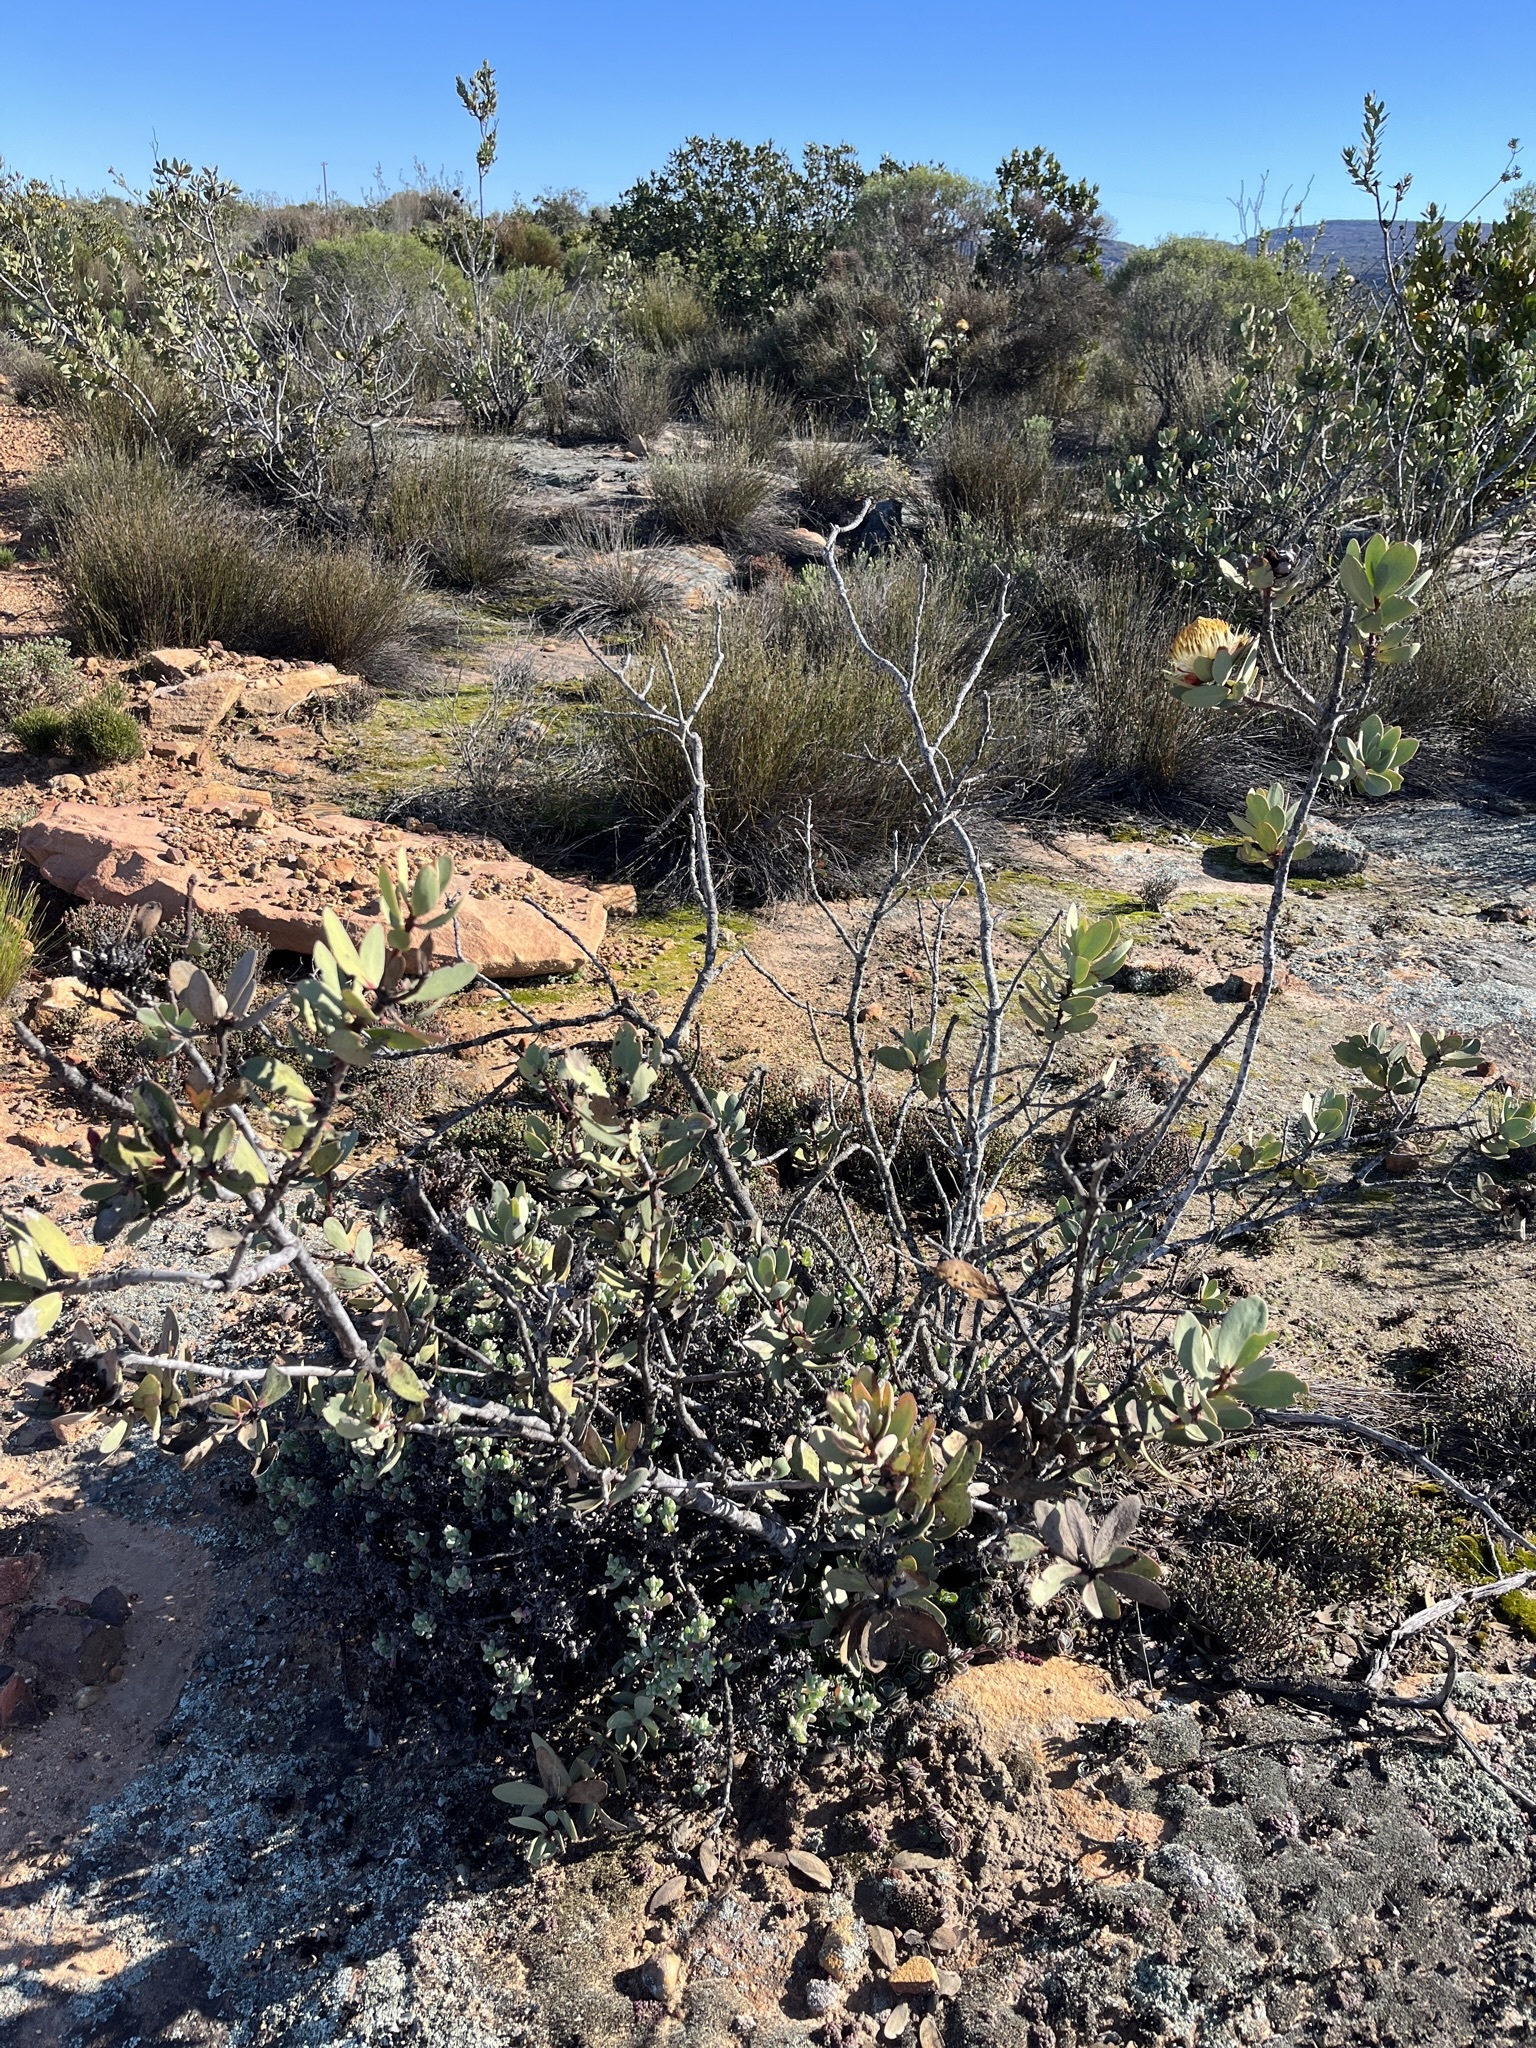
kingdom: Plantae
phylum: Tracheophyta
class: Magnoliopsida
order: Proteales
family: Proteaceae
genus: Protea
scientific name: Protea glabra
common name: Chestnut sugarbush
